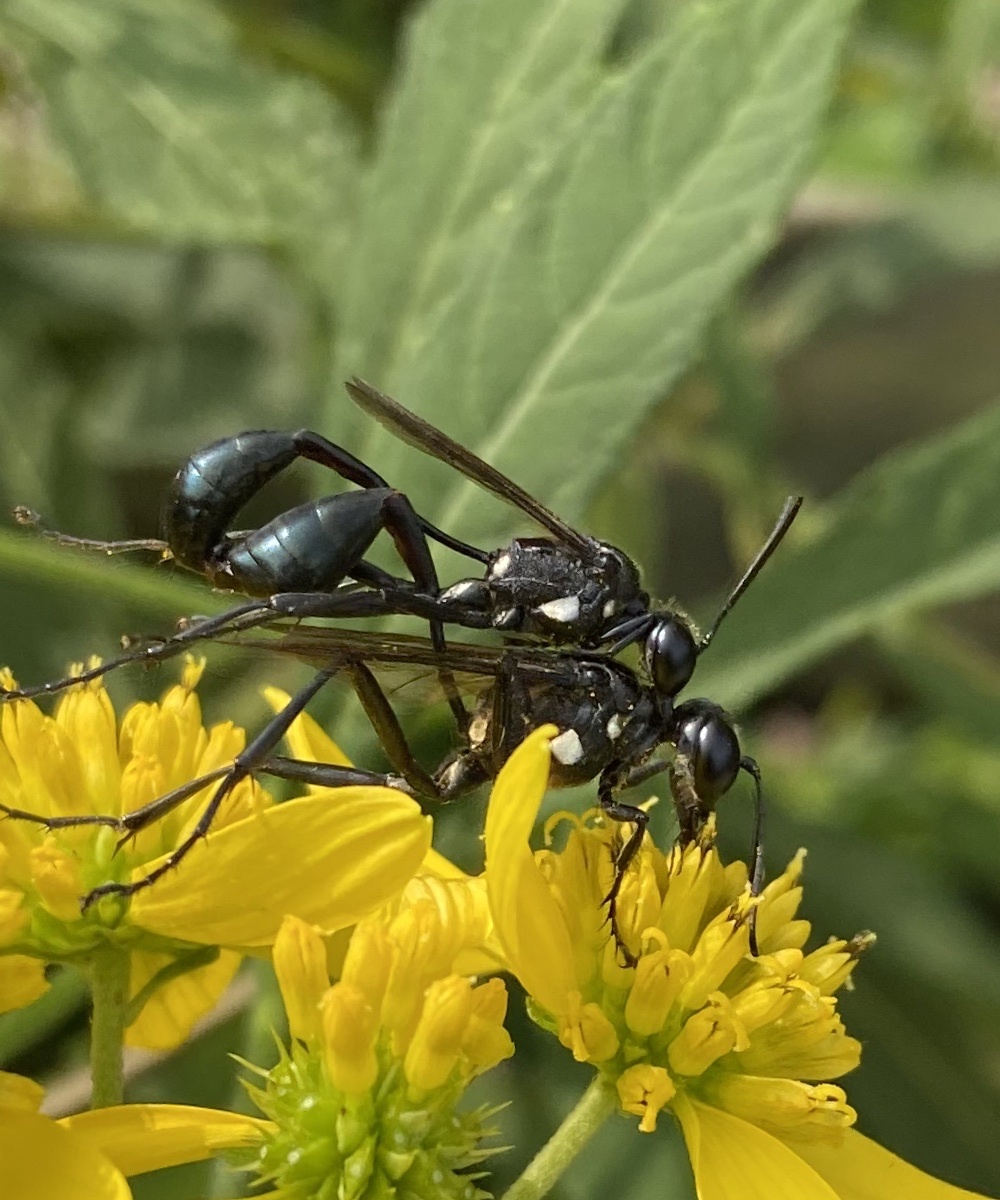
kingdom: Animalia
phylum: Arthropoda
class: Insecta
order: Hymenoptera
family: Sphecidae
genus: Eremnophila
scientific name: Eremnophila aureonotata
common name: Gold-marked thread-waisted wasp
